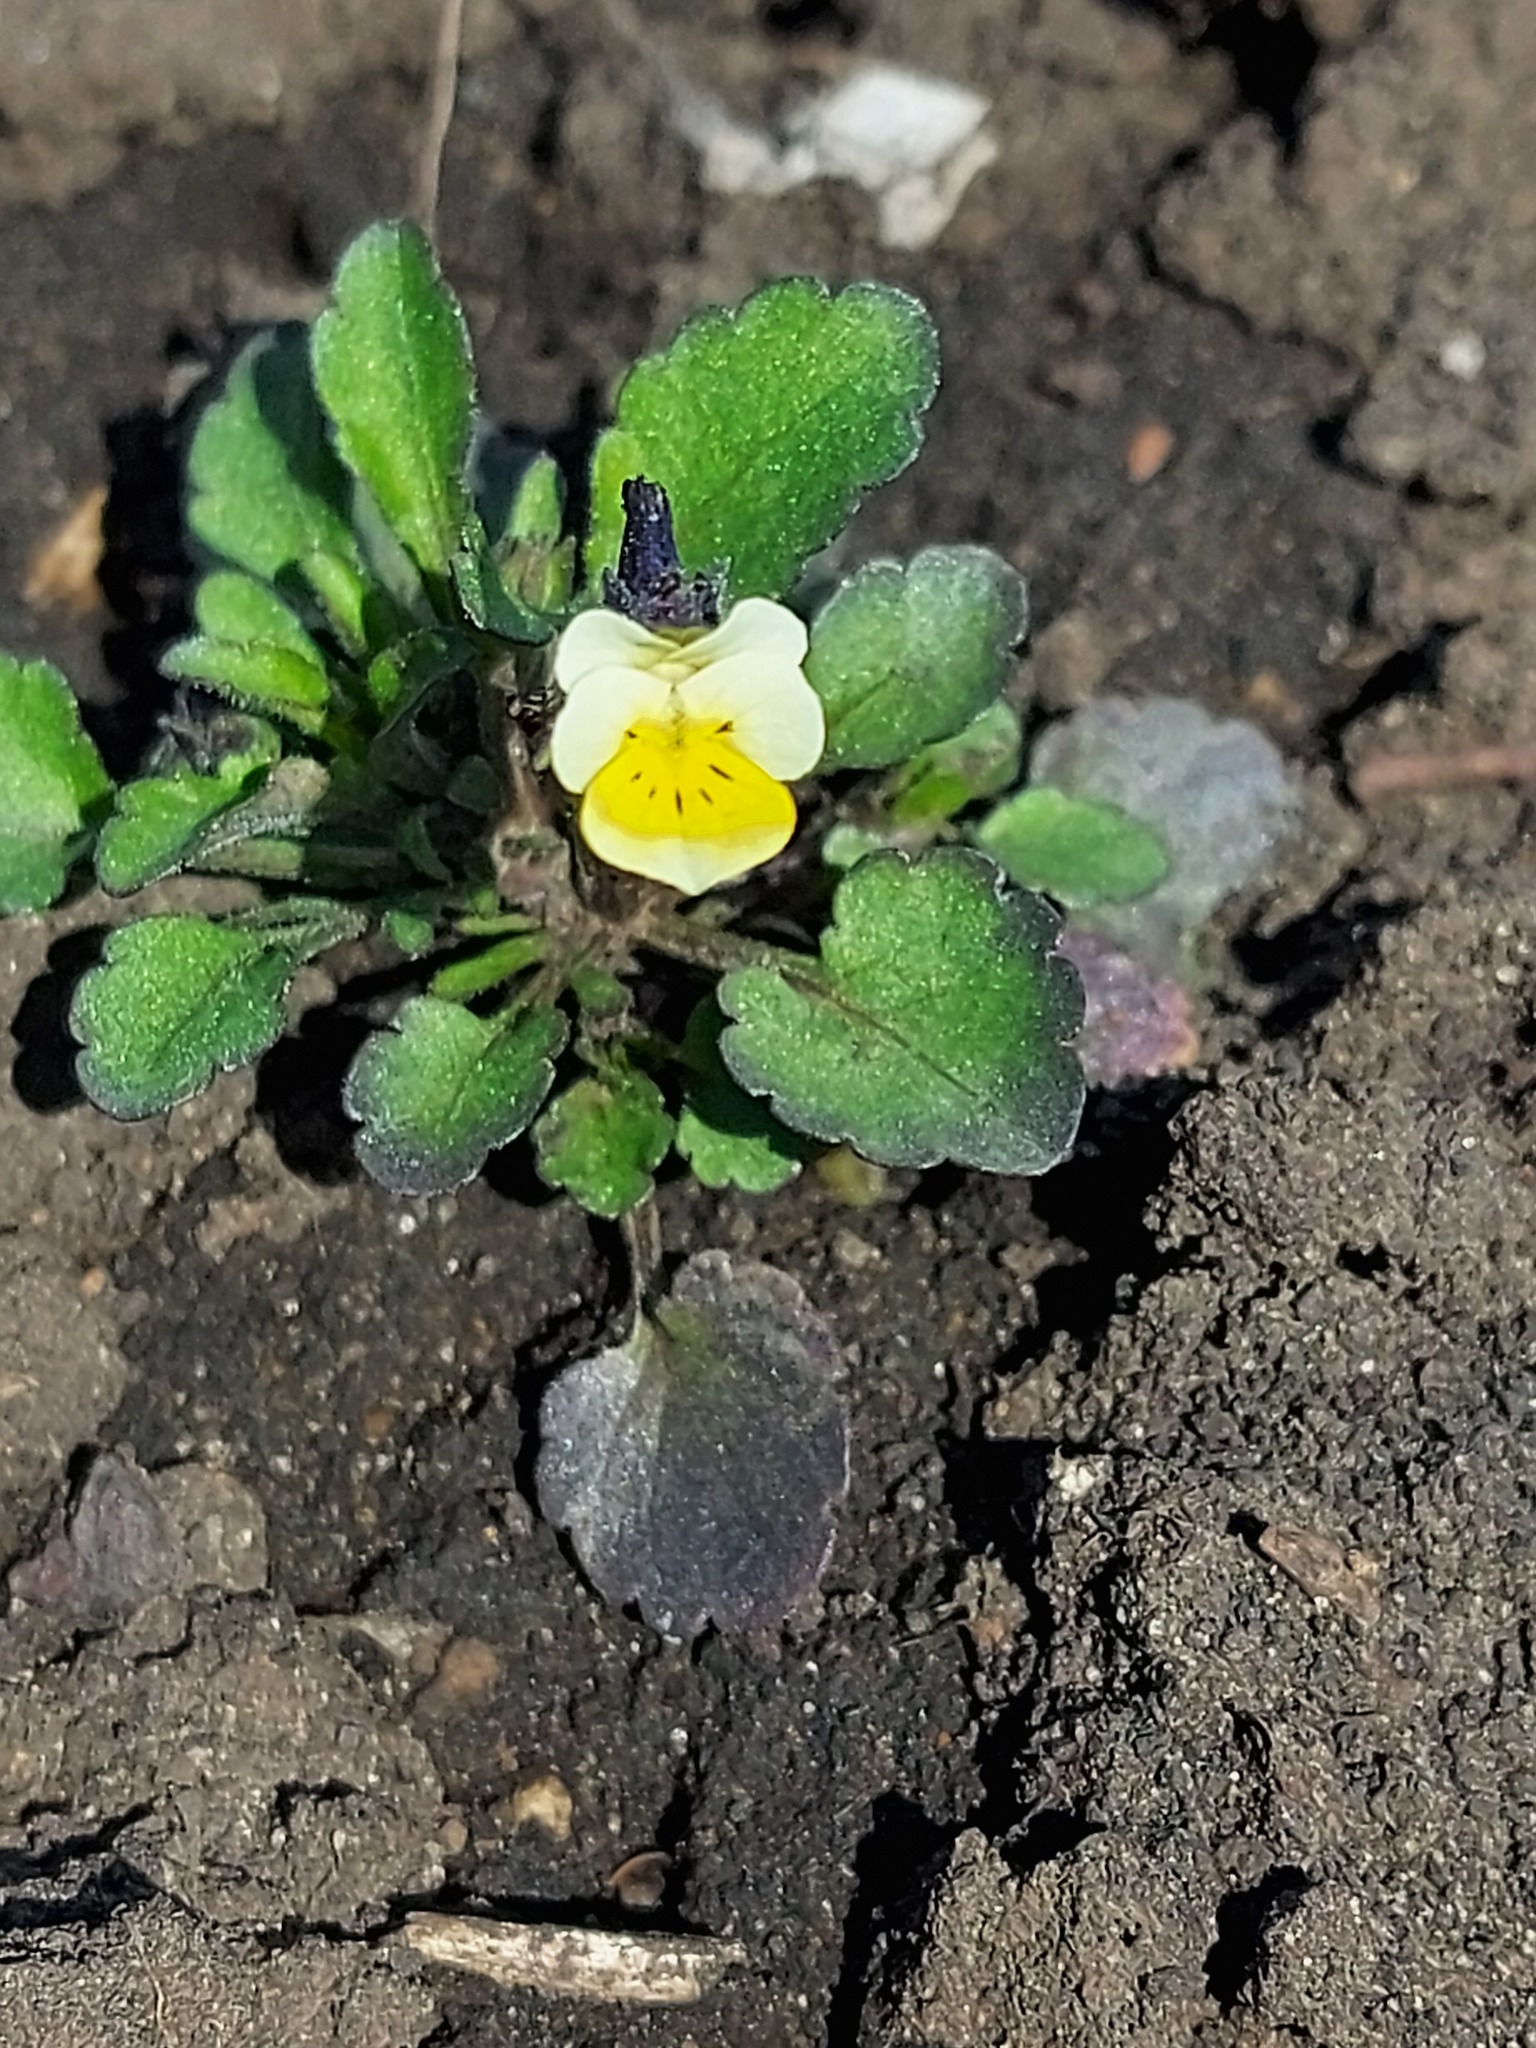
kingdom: Plantae
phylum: Tracheophyta
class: Magnoliopsida
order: Malpighiales
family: Violaceae
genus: Viola
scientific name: Viola arvensis
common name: Field pansy
